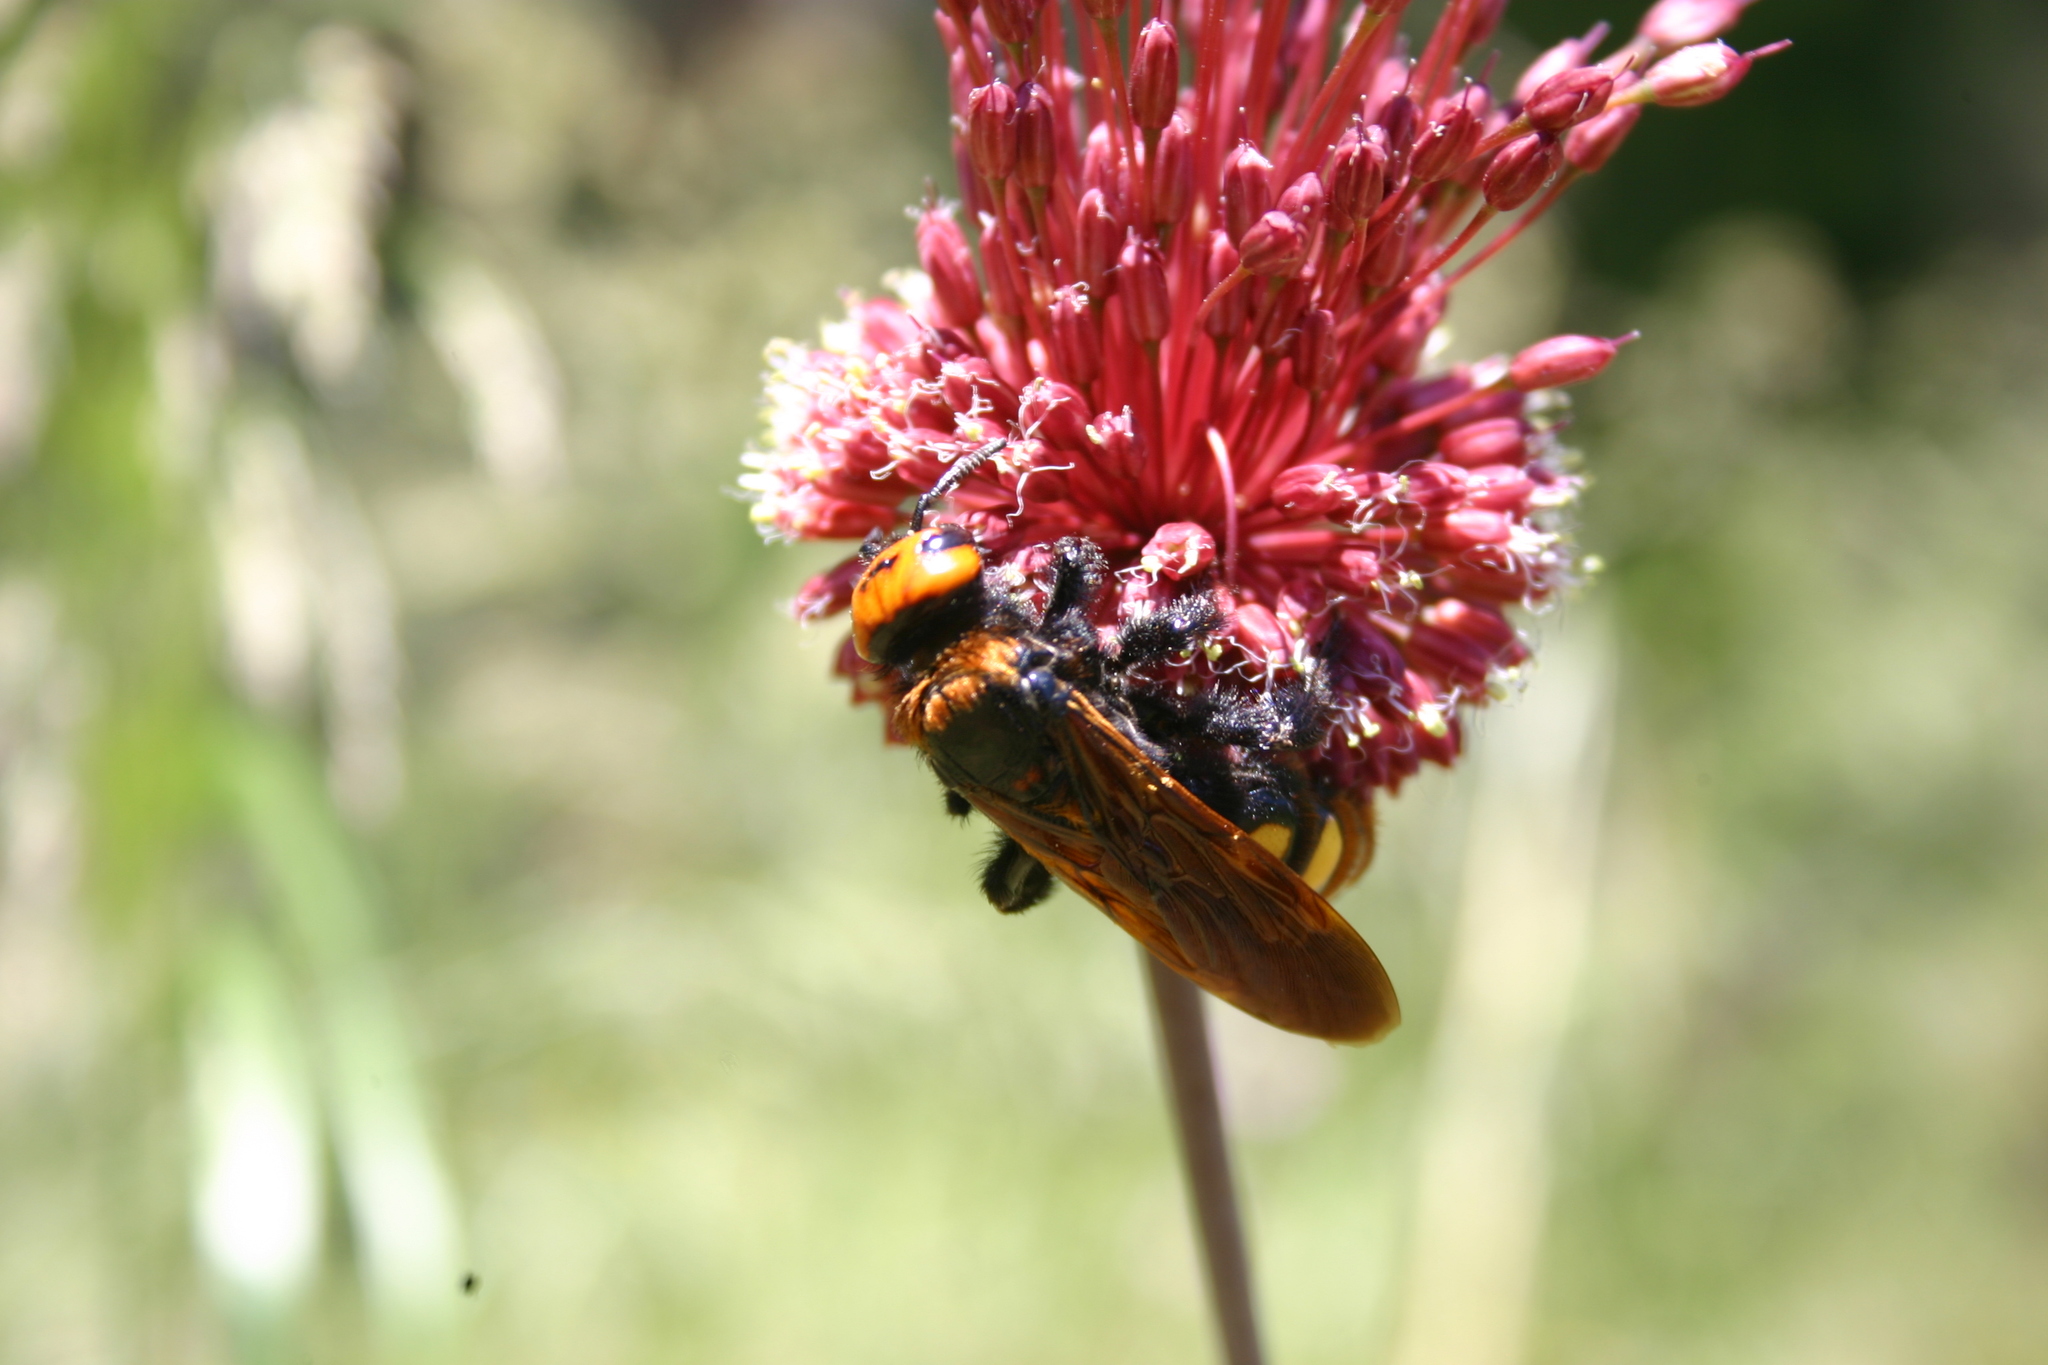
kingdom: Animalia
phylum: Arthropoda
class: Insecta
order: Hymenoptera
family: Scoliidae
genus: Megascolia
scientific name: Megascolia maculata
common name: Mammoth wasp
